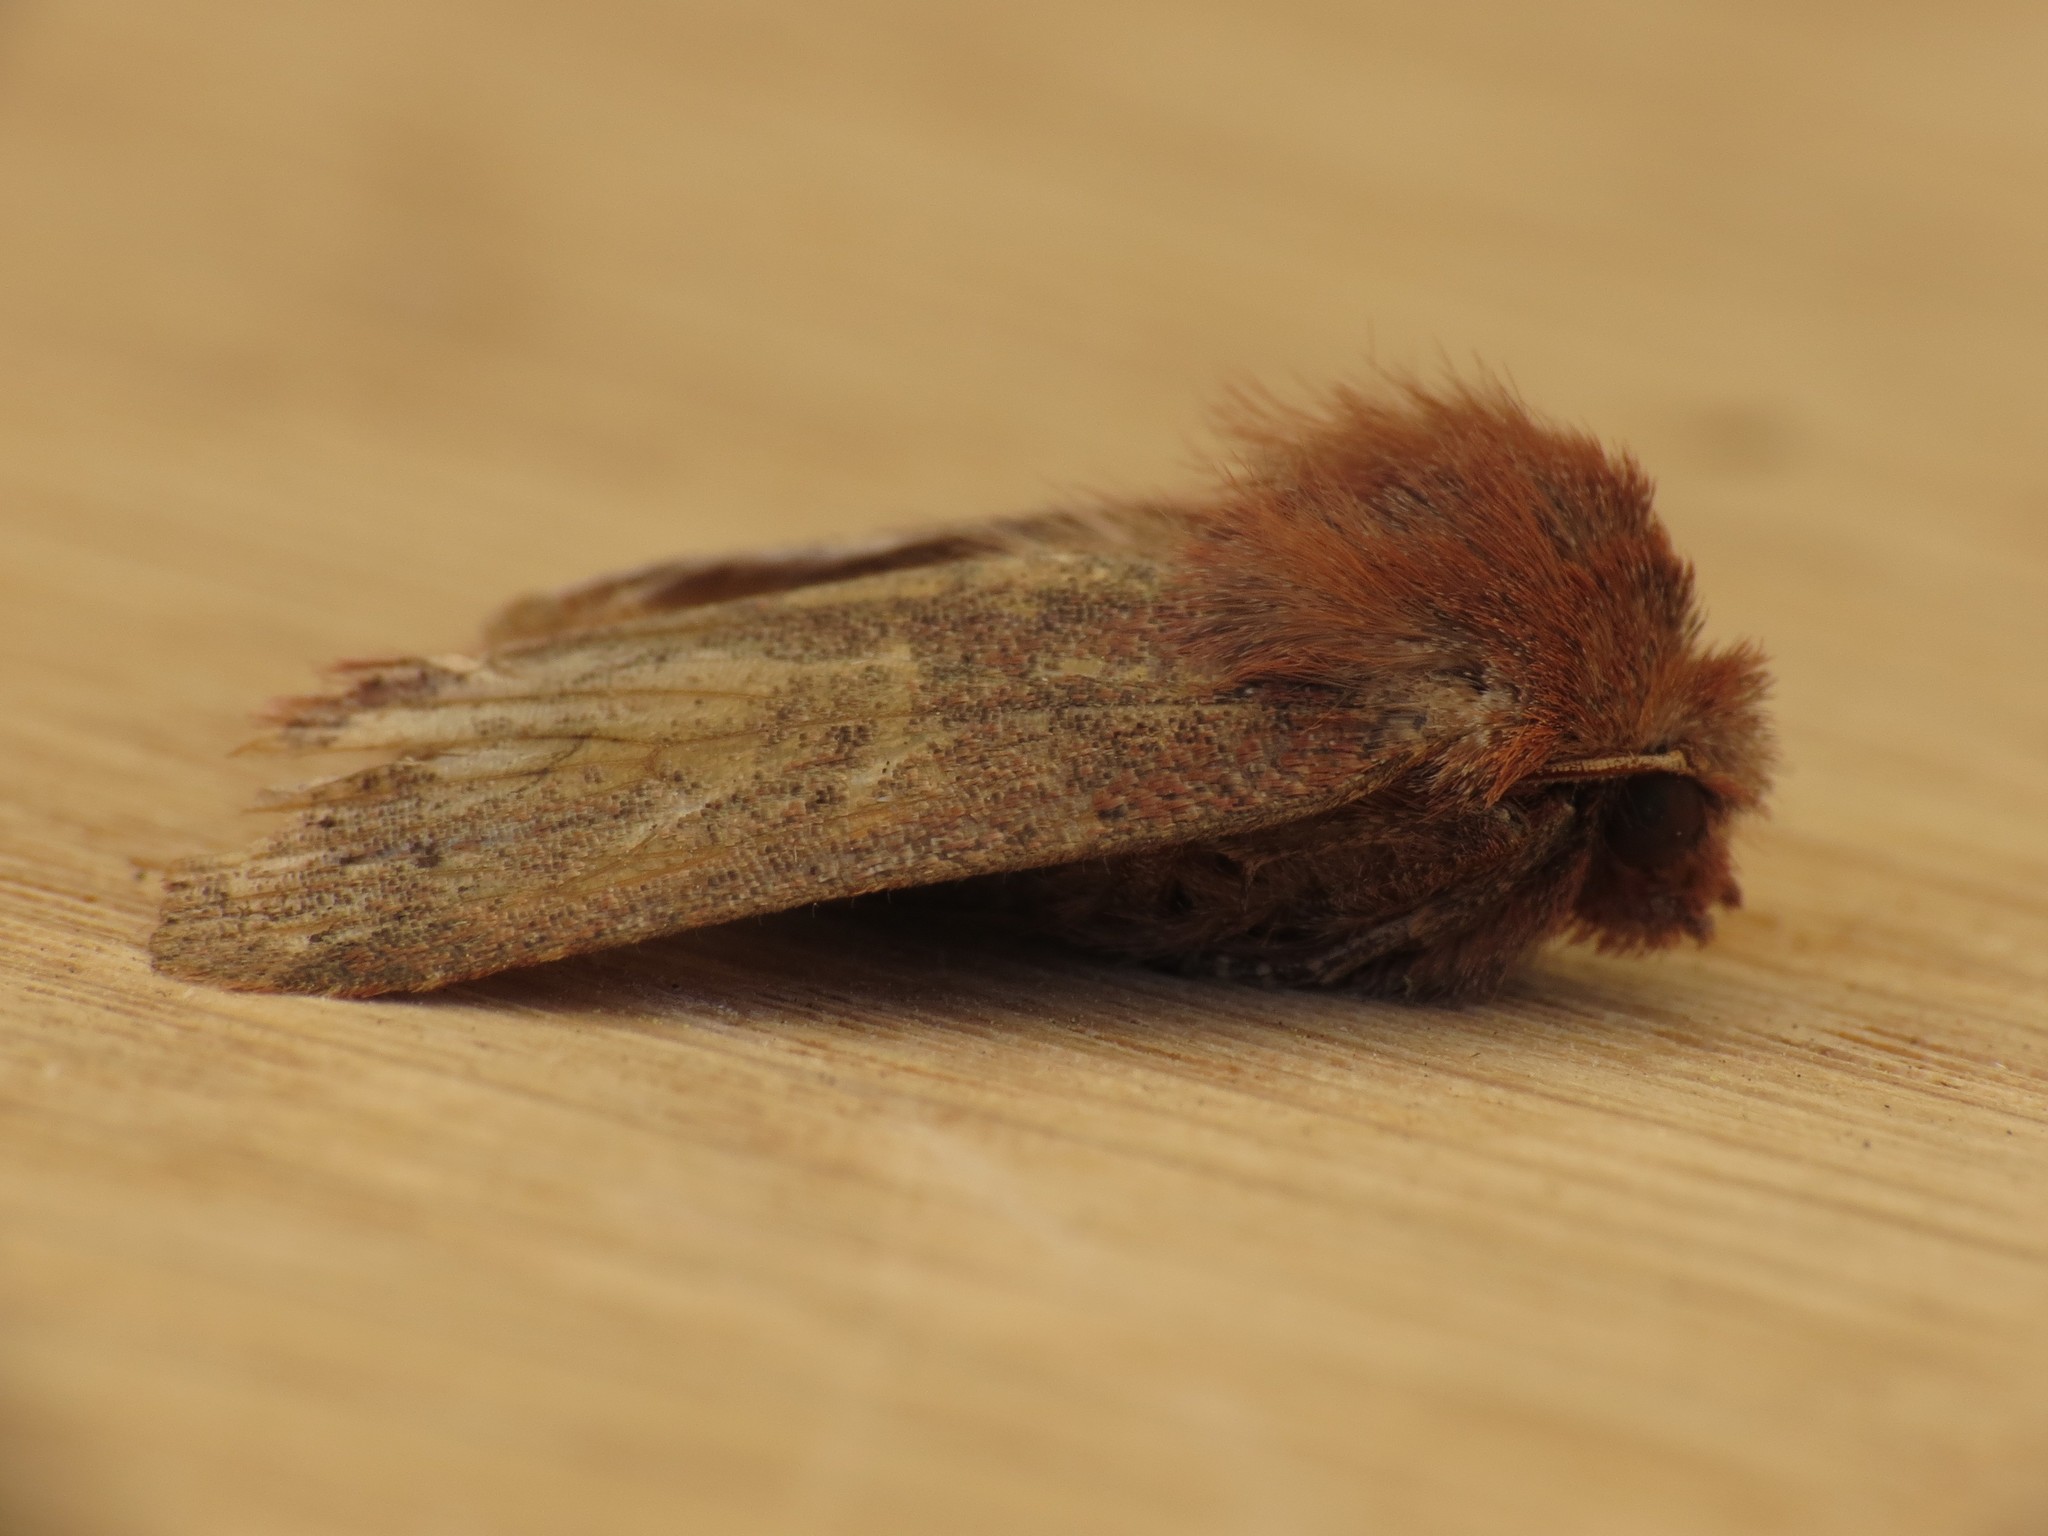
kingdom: Animalia
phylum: Arthropoda
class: Insecta
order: Lepidoptera
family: Noctuidae
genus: Conistra
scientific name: Conistra vaccinii
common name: Chestnut
